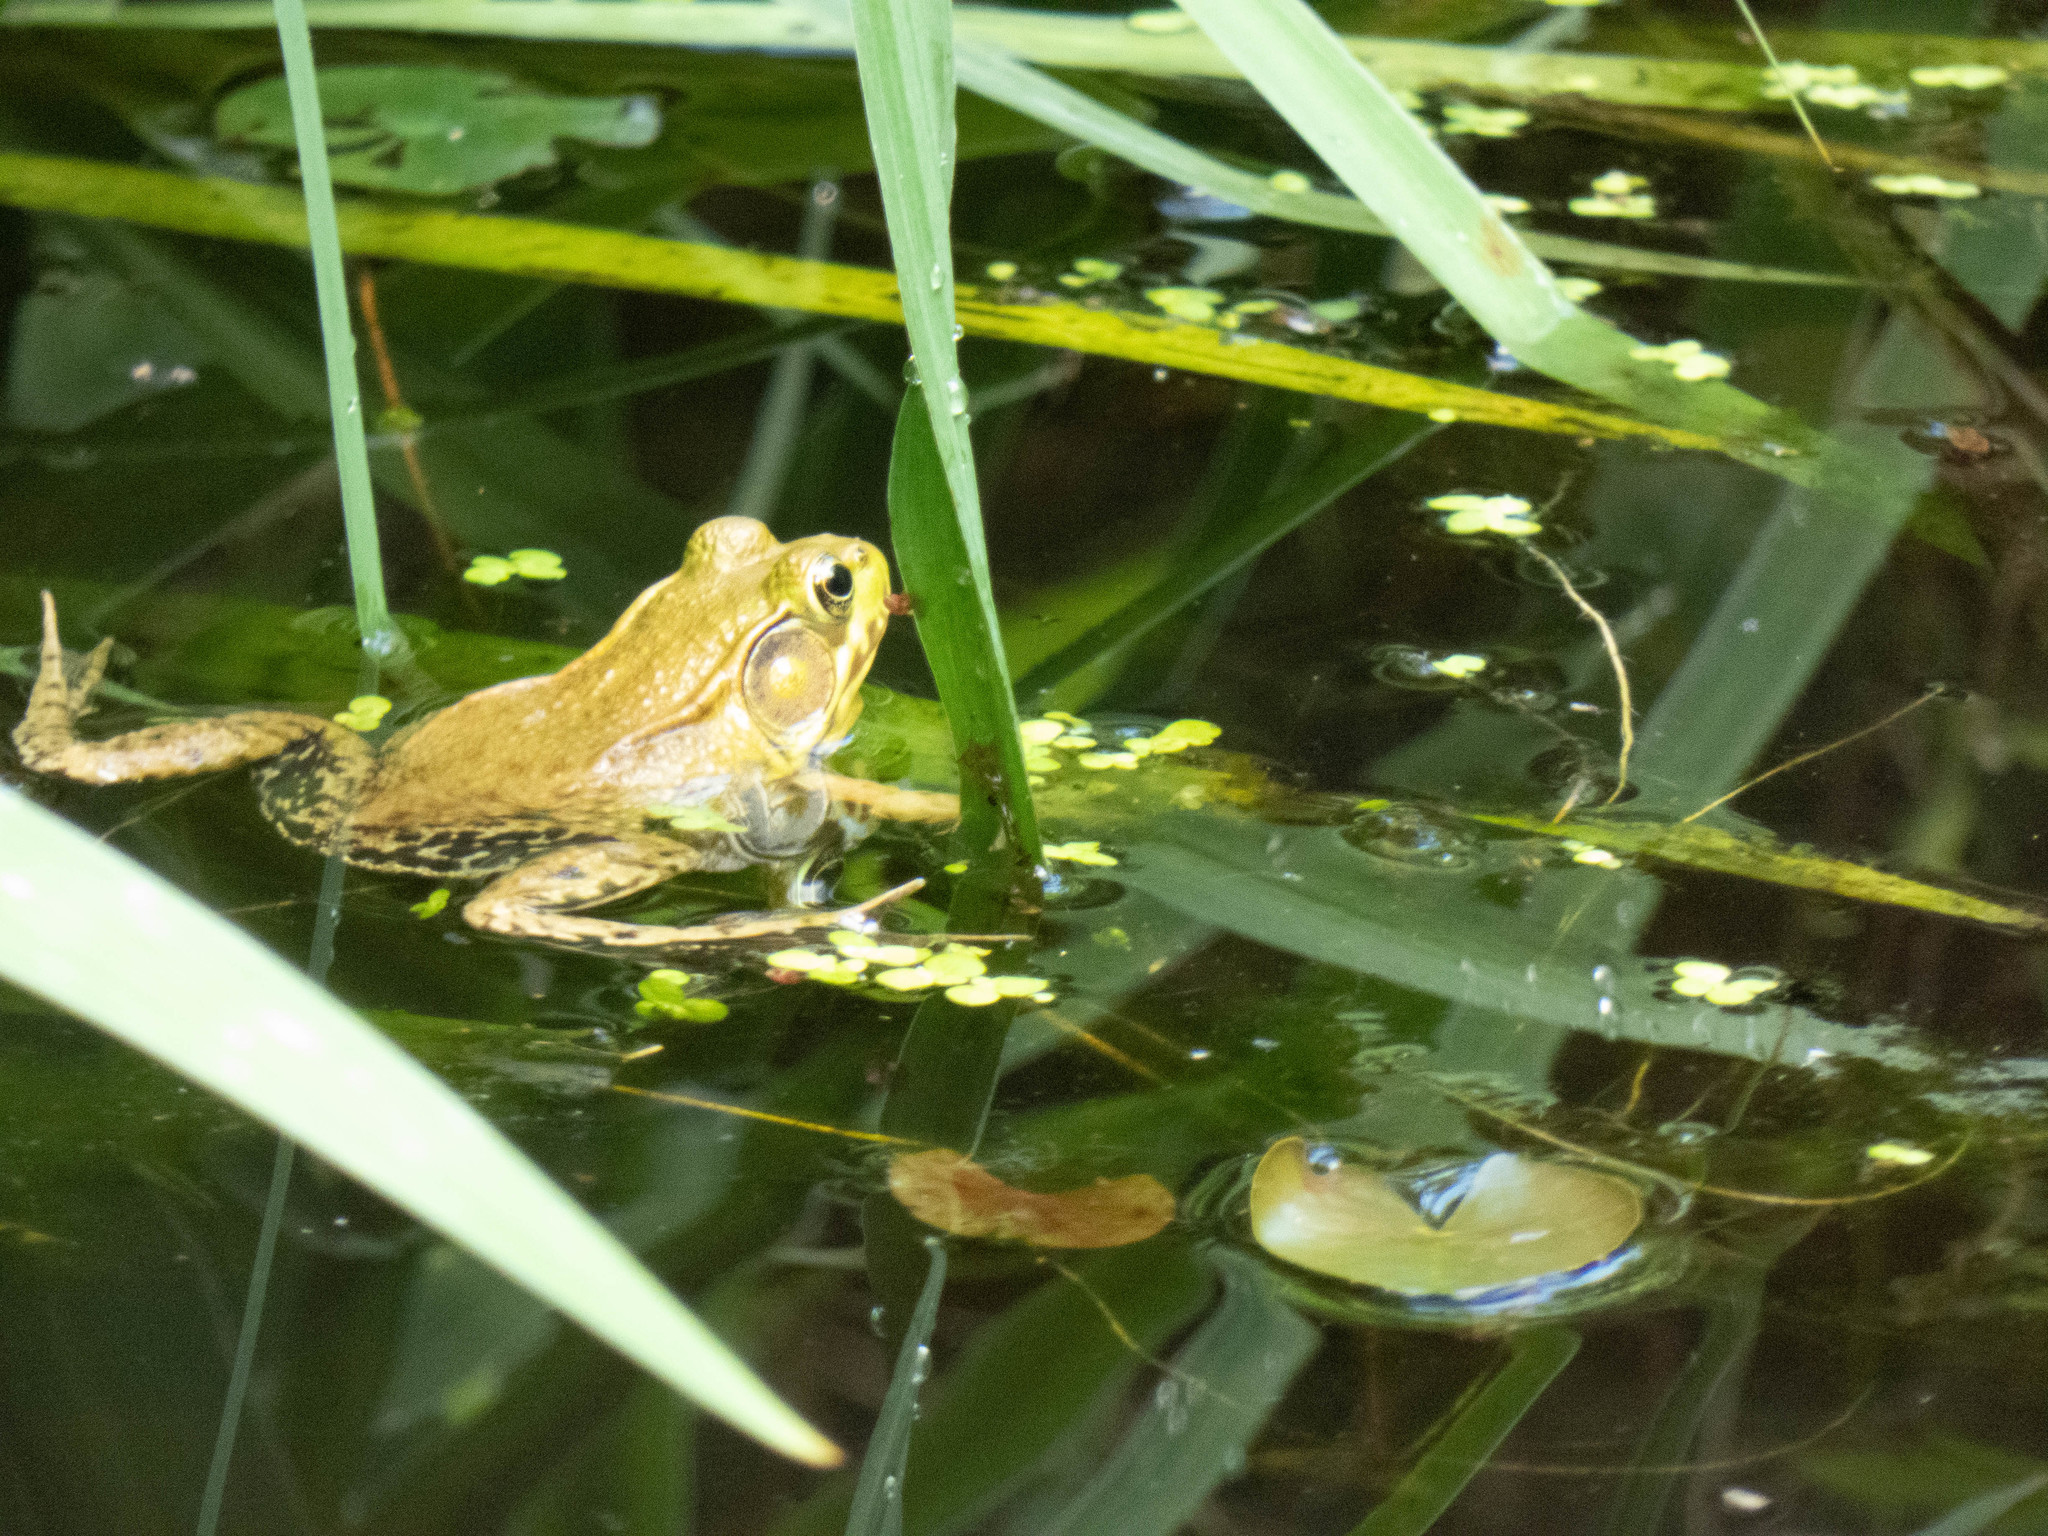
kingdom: Animalia
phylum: Chordata
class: Amphibia
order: Anura
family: Ranidae
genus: Lithobates
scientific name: Lithobates clamitans
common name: Green frog
